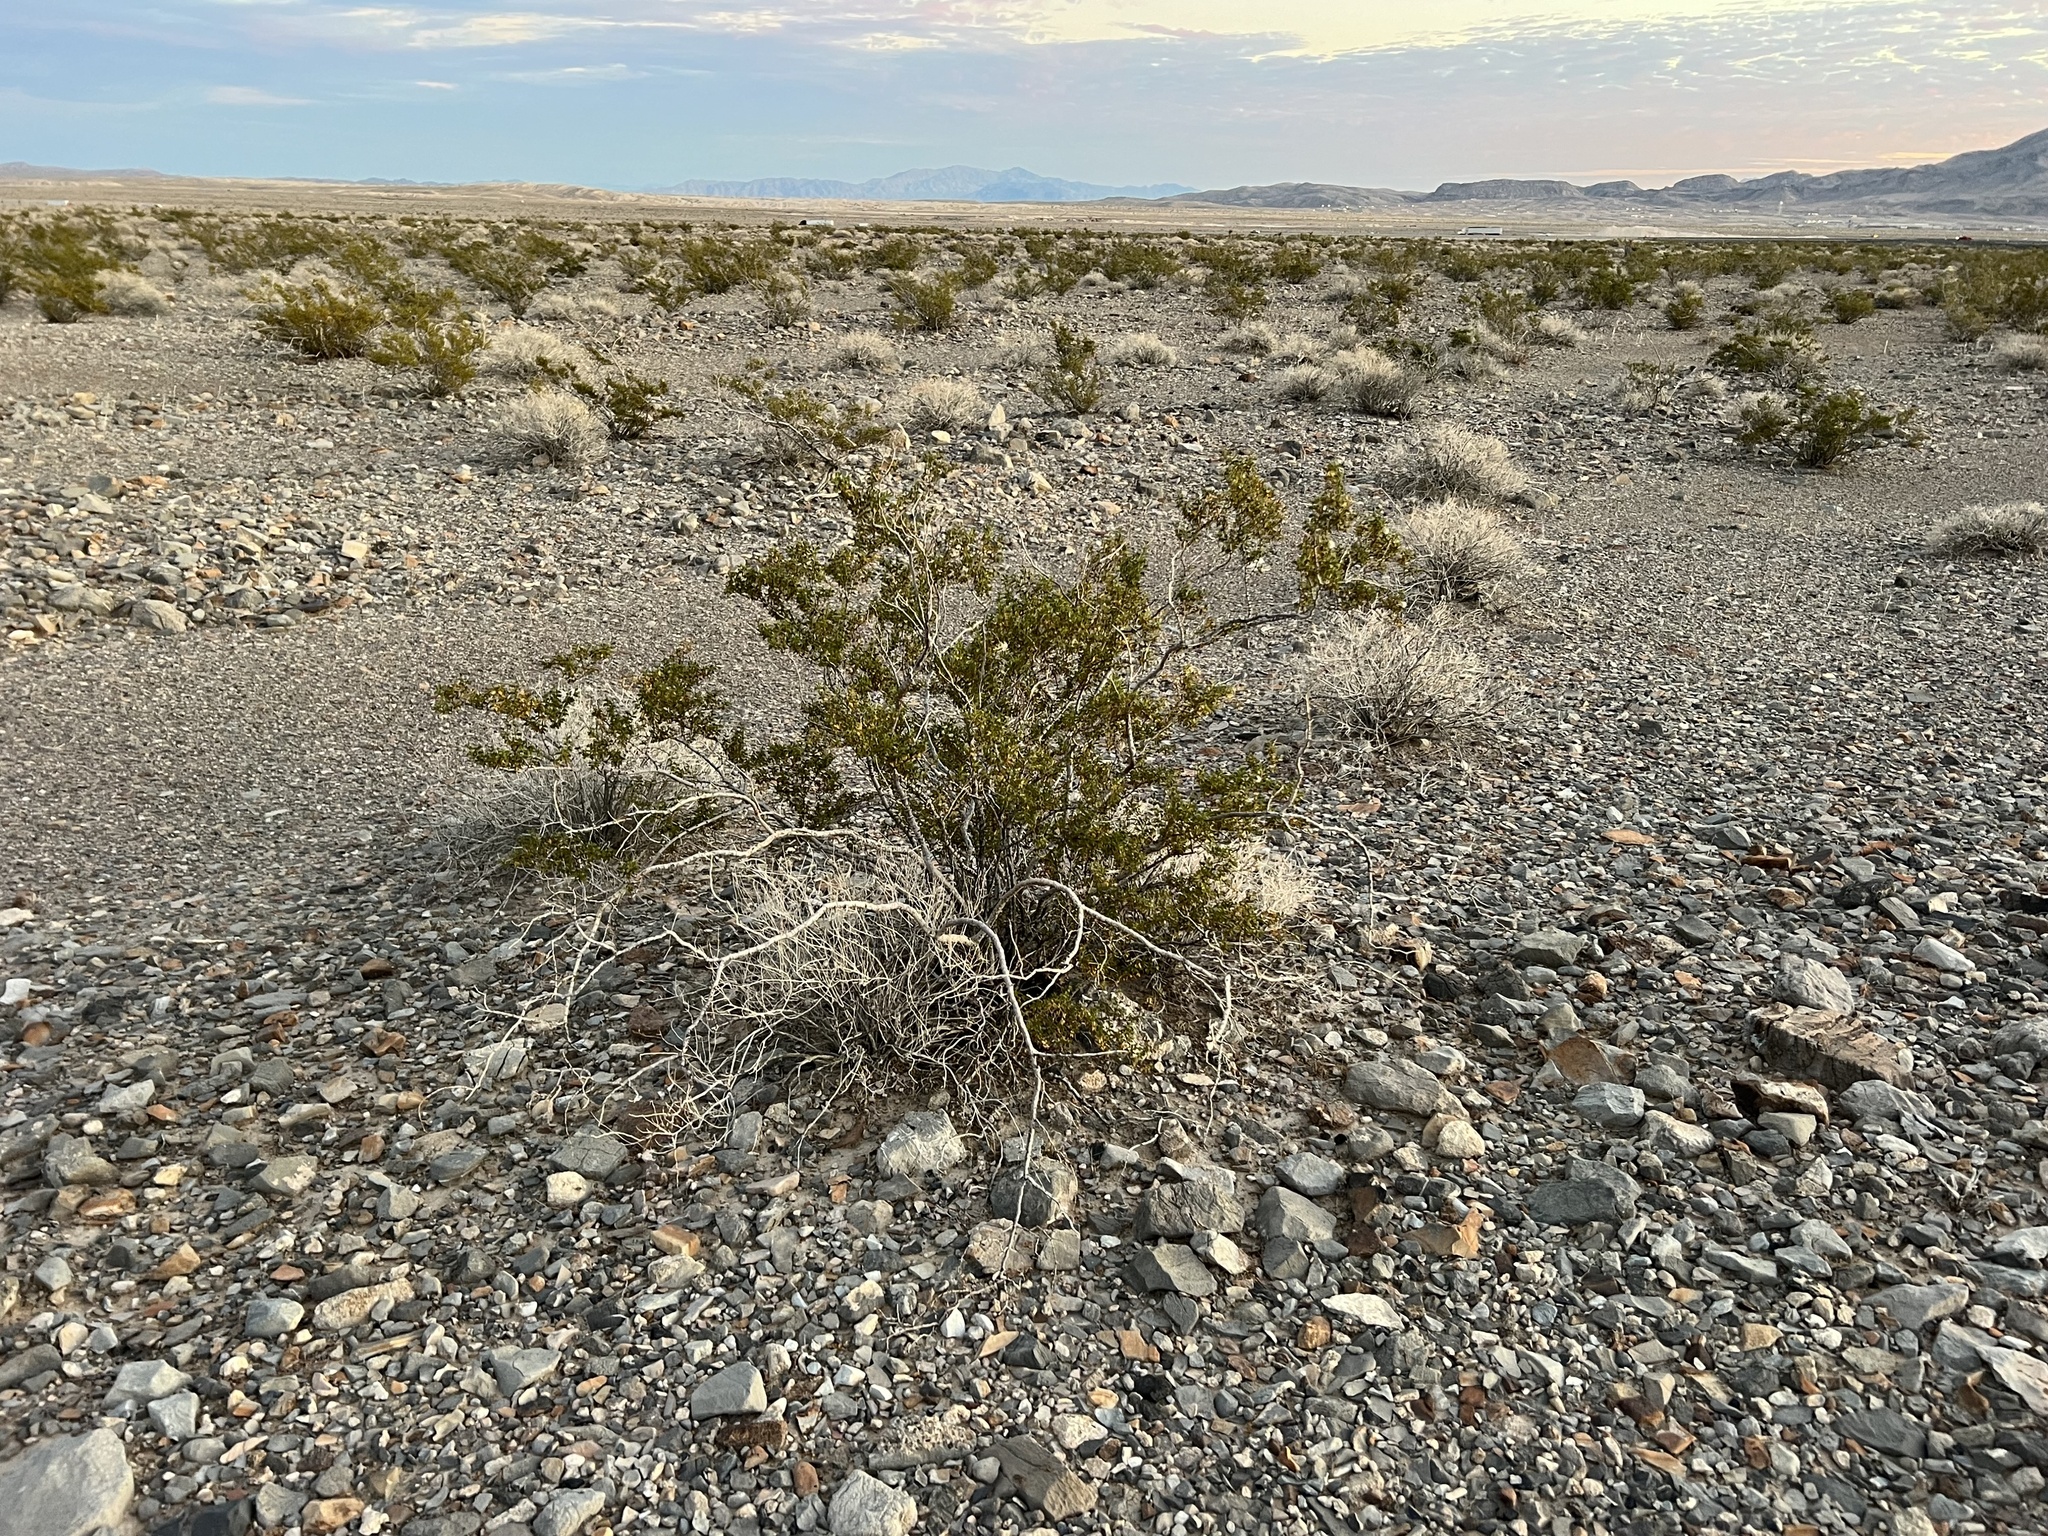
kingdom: Plantae
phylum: Tracheophyta
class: Magnoliopsida
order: Zygophyllales
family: Zygophyllaceae
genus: Larrea
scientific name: Larrea tridentata
